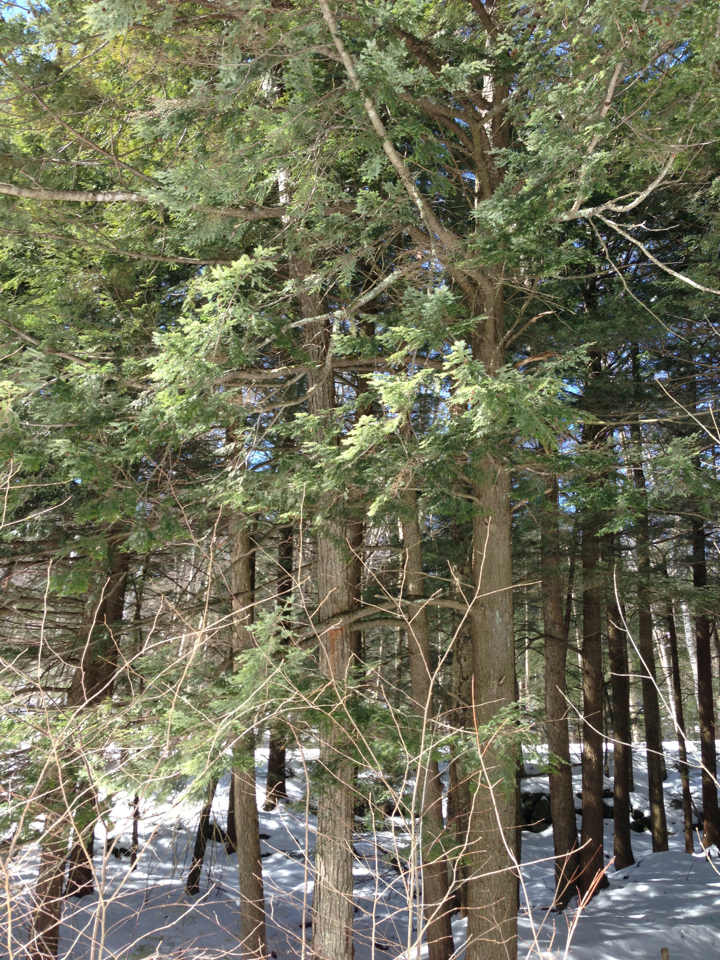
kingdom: Plantae
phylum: Tracheophyta
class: Pinopsida
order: Pinales
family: Pinaceae
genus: Tsuga
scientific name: Tsuga canadensis
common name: Eastern hemlock
